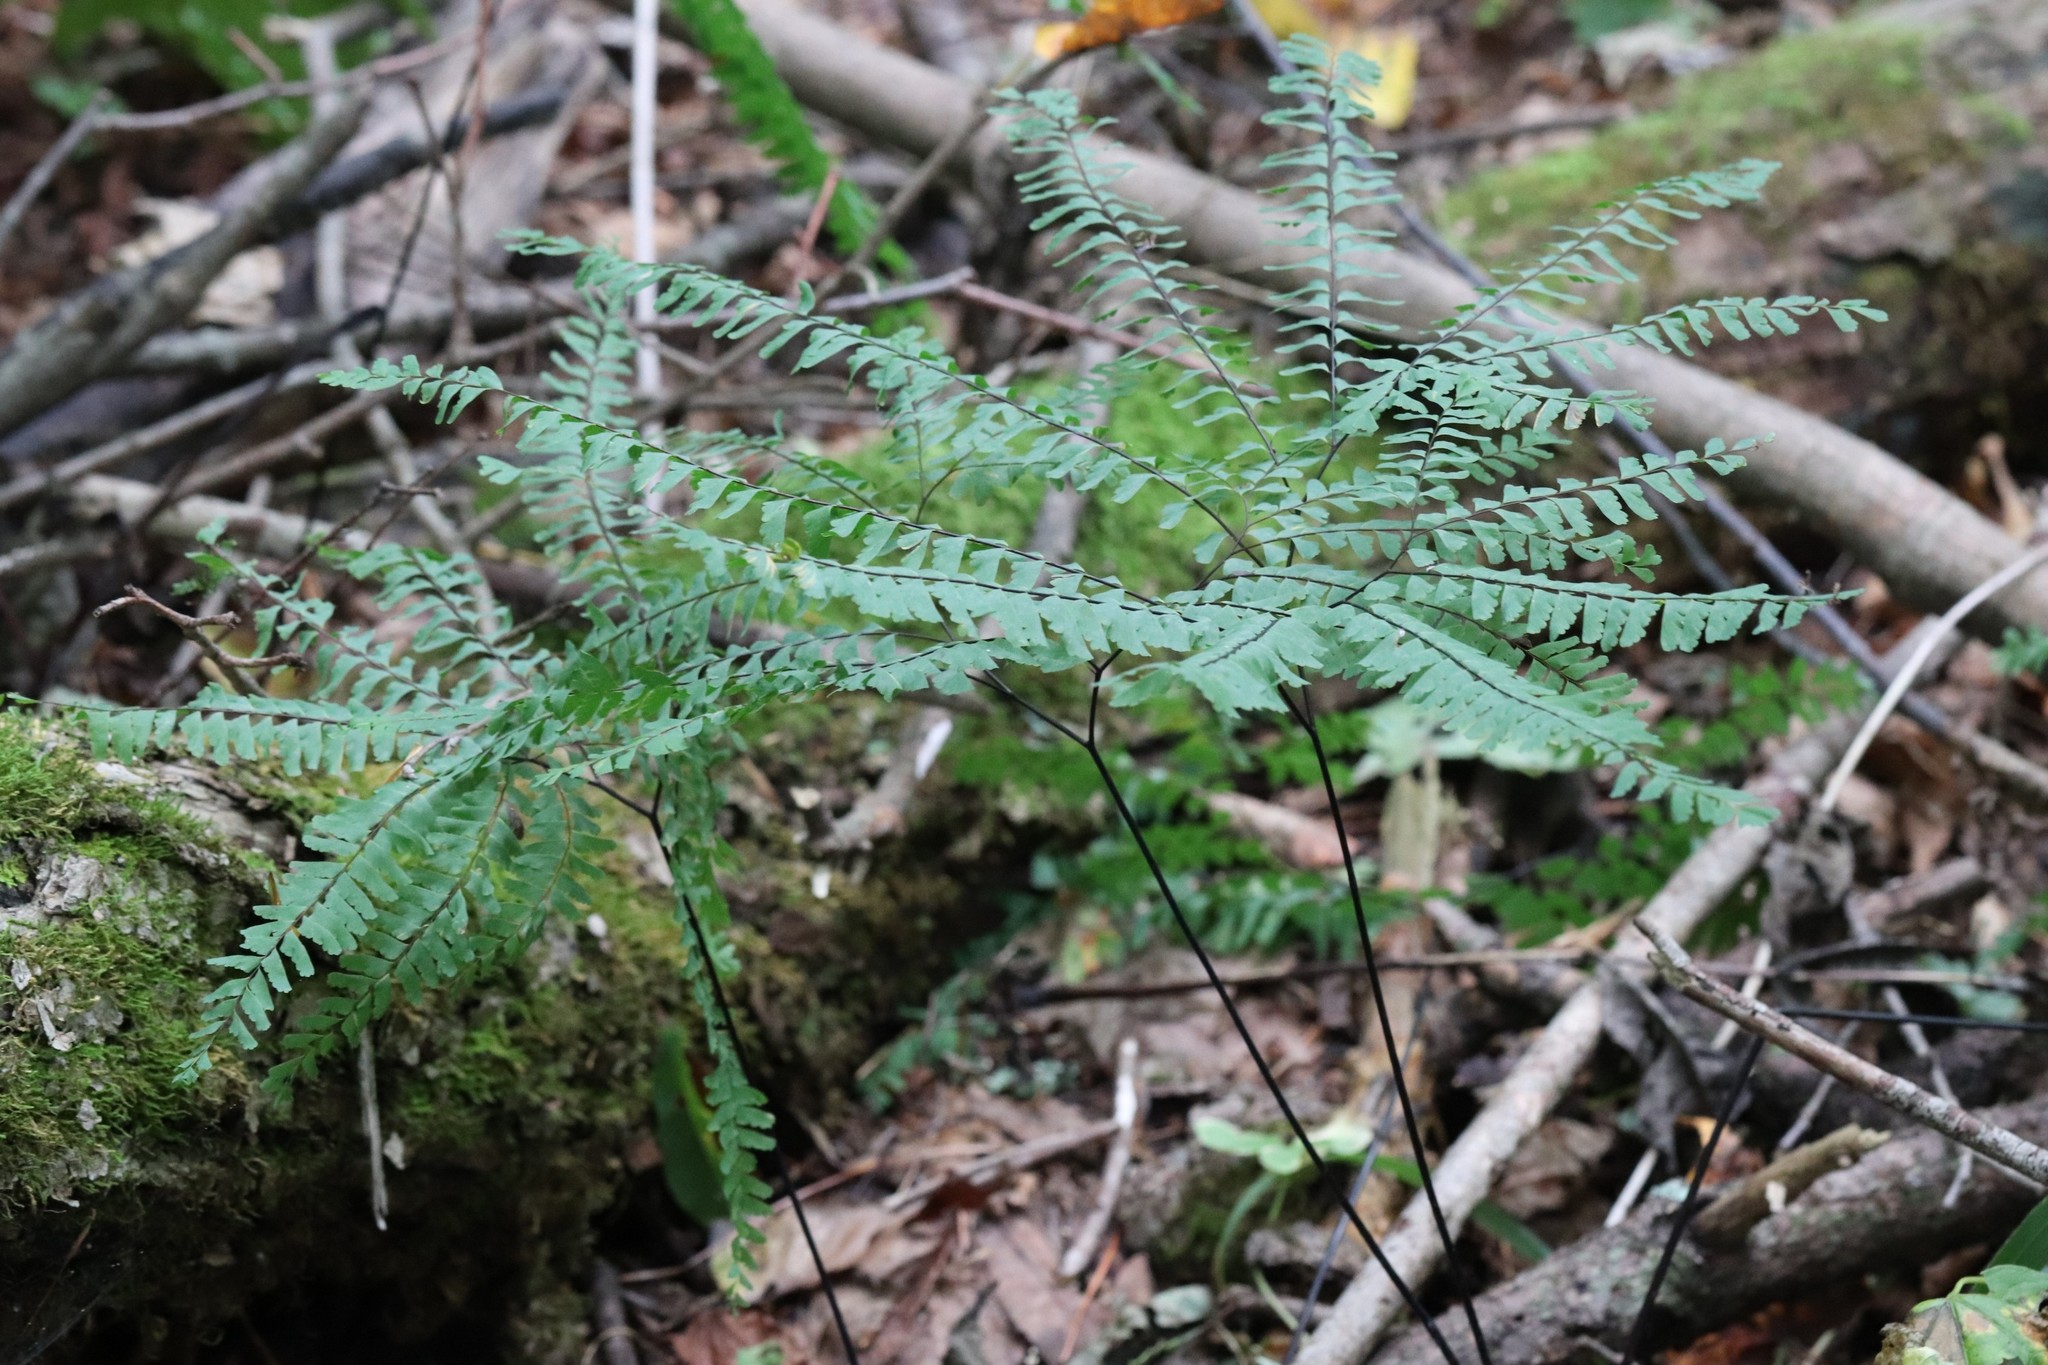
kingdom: Plantae
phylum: Tracheophyta
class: Polypodiopsida
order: Polypodiales
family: Pteridaceae
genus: Adiantum
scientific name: Adiantum pedatum
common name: Five-finger fern
